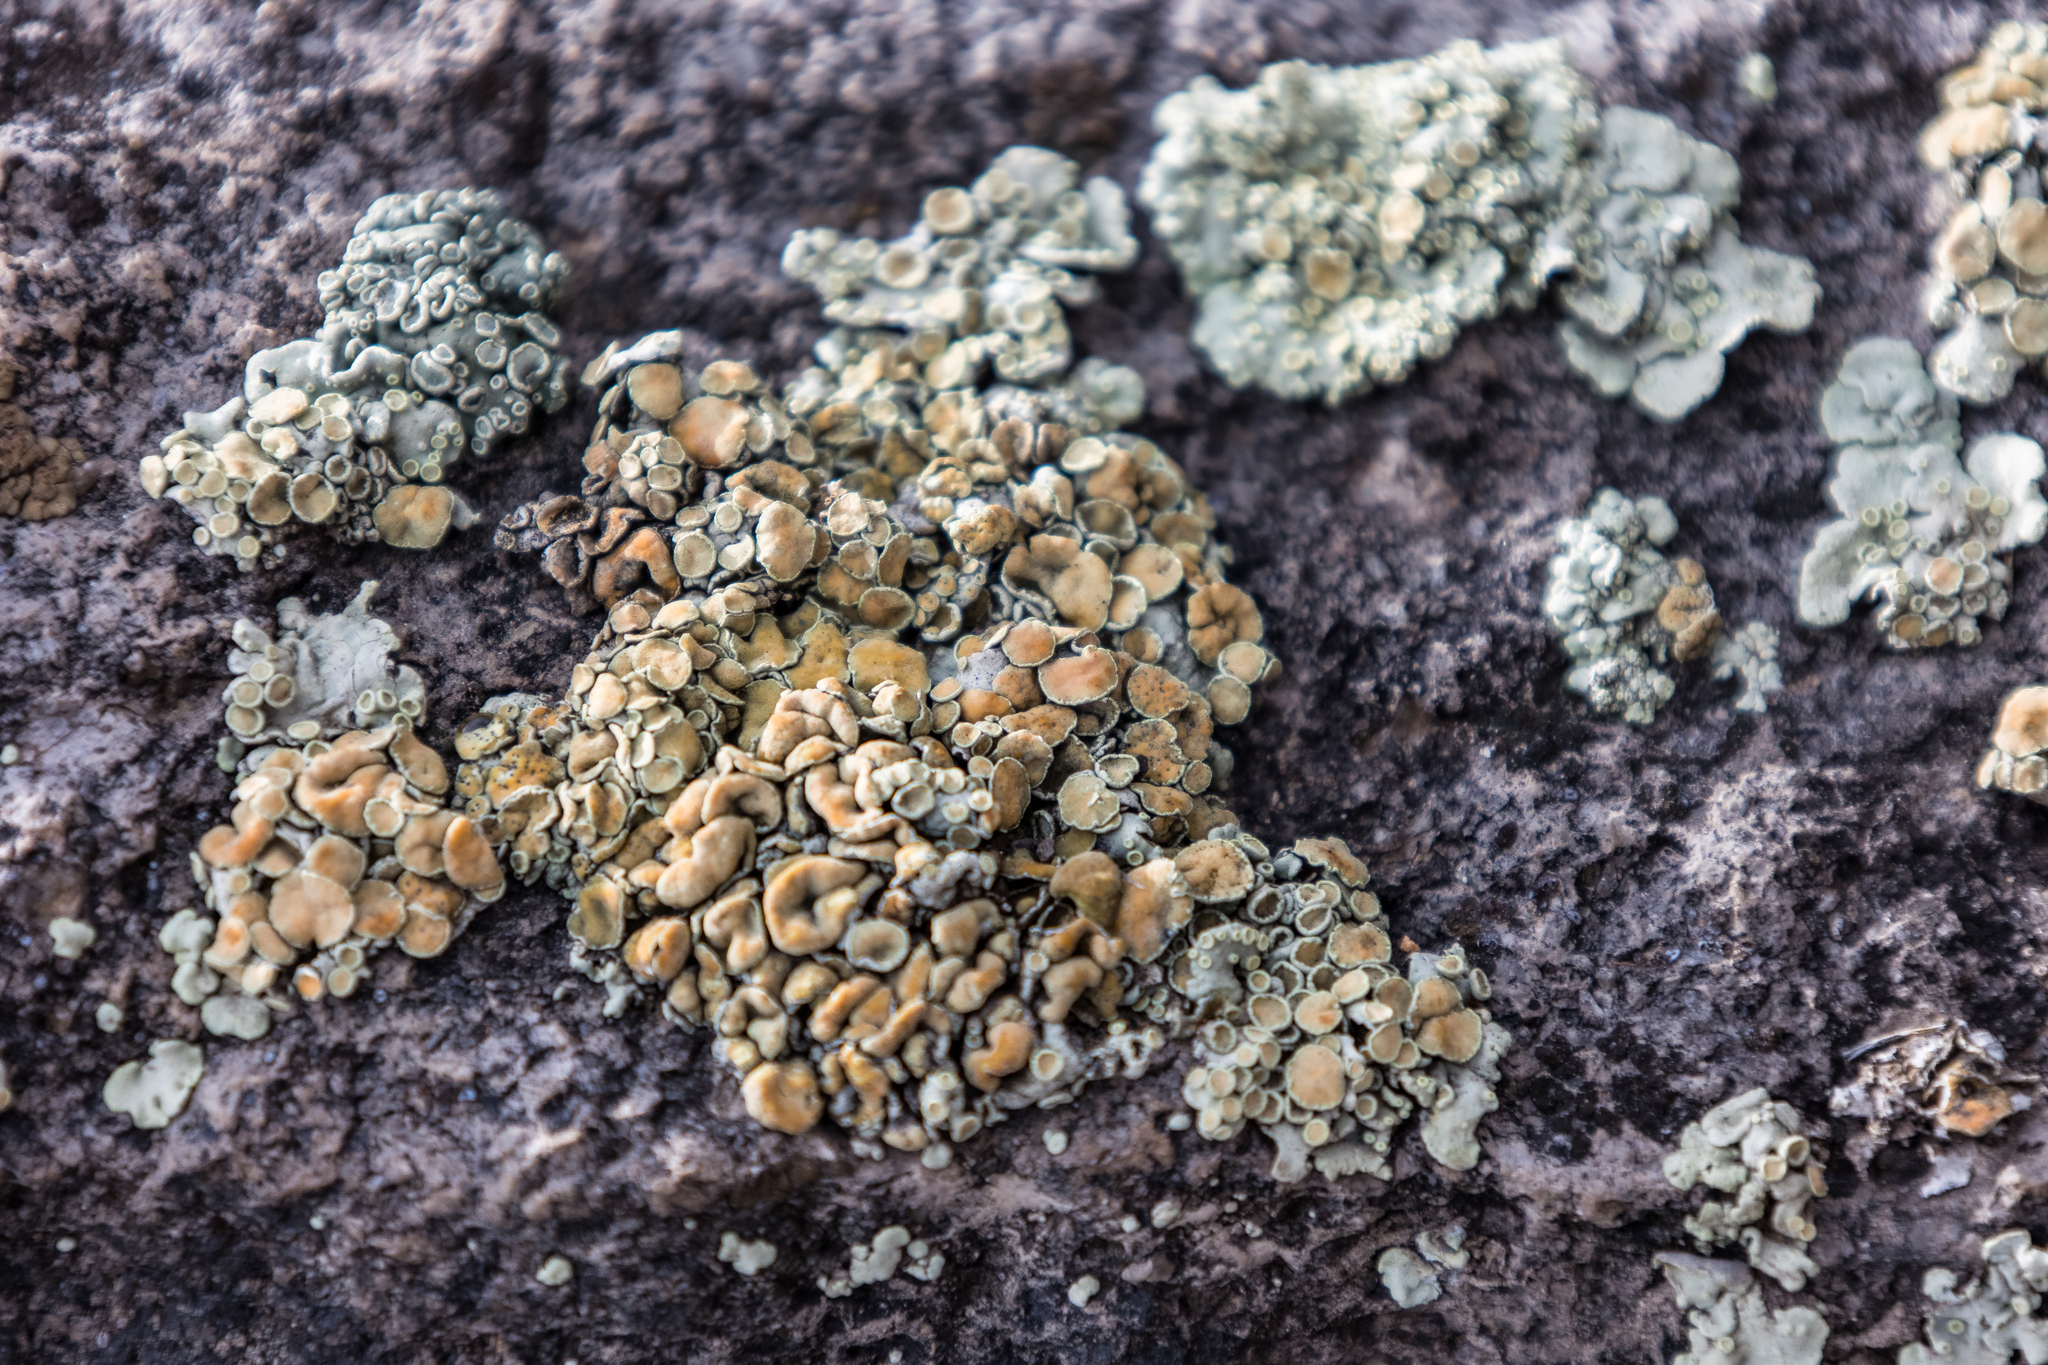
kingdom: Fungi
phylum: Ascomycota
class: Lecanoromycetes
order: Lecanorales
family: Lecanoraceae
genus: Omphalodina
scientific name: Omphalodina chrysoleuca
